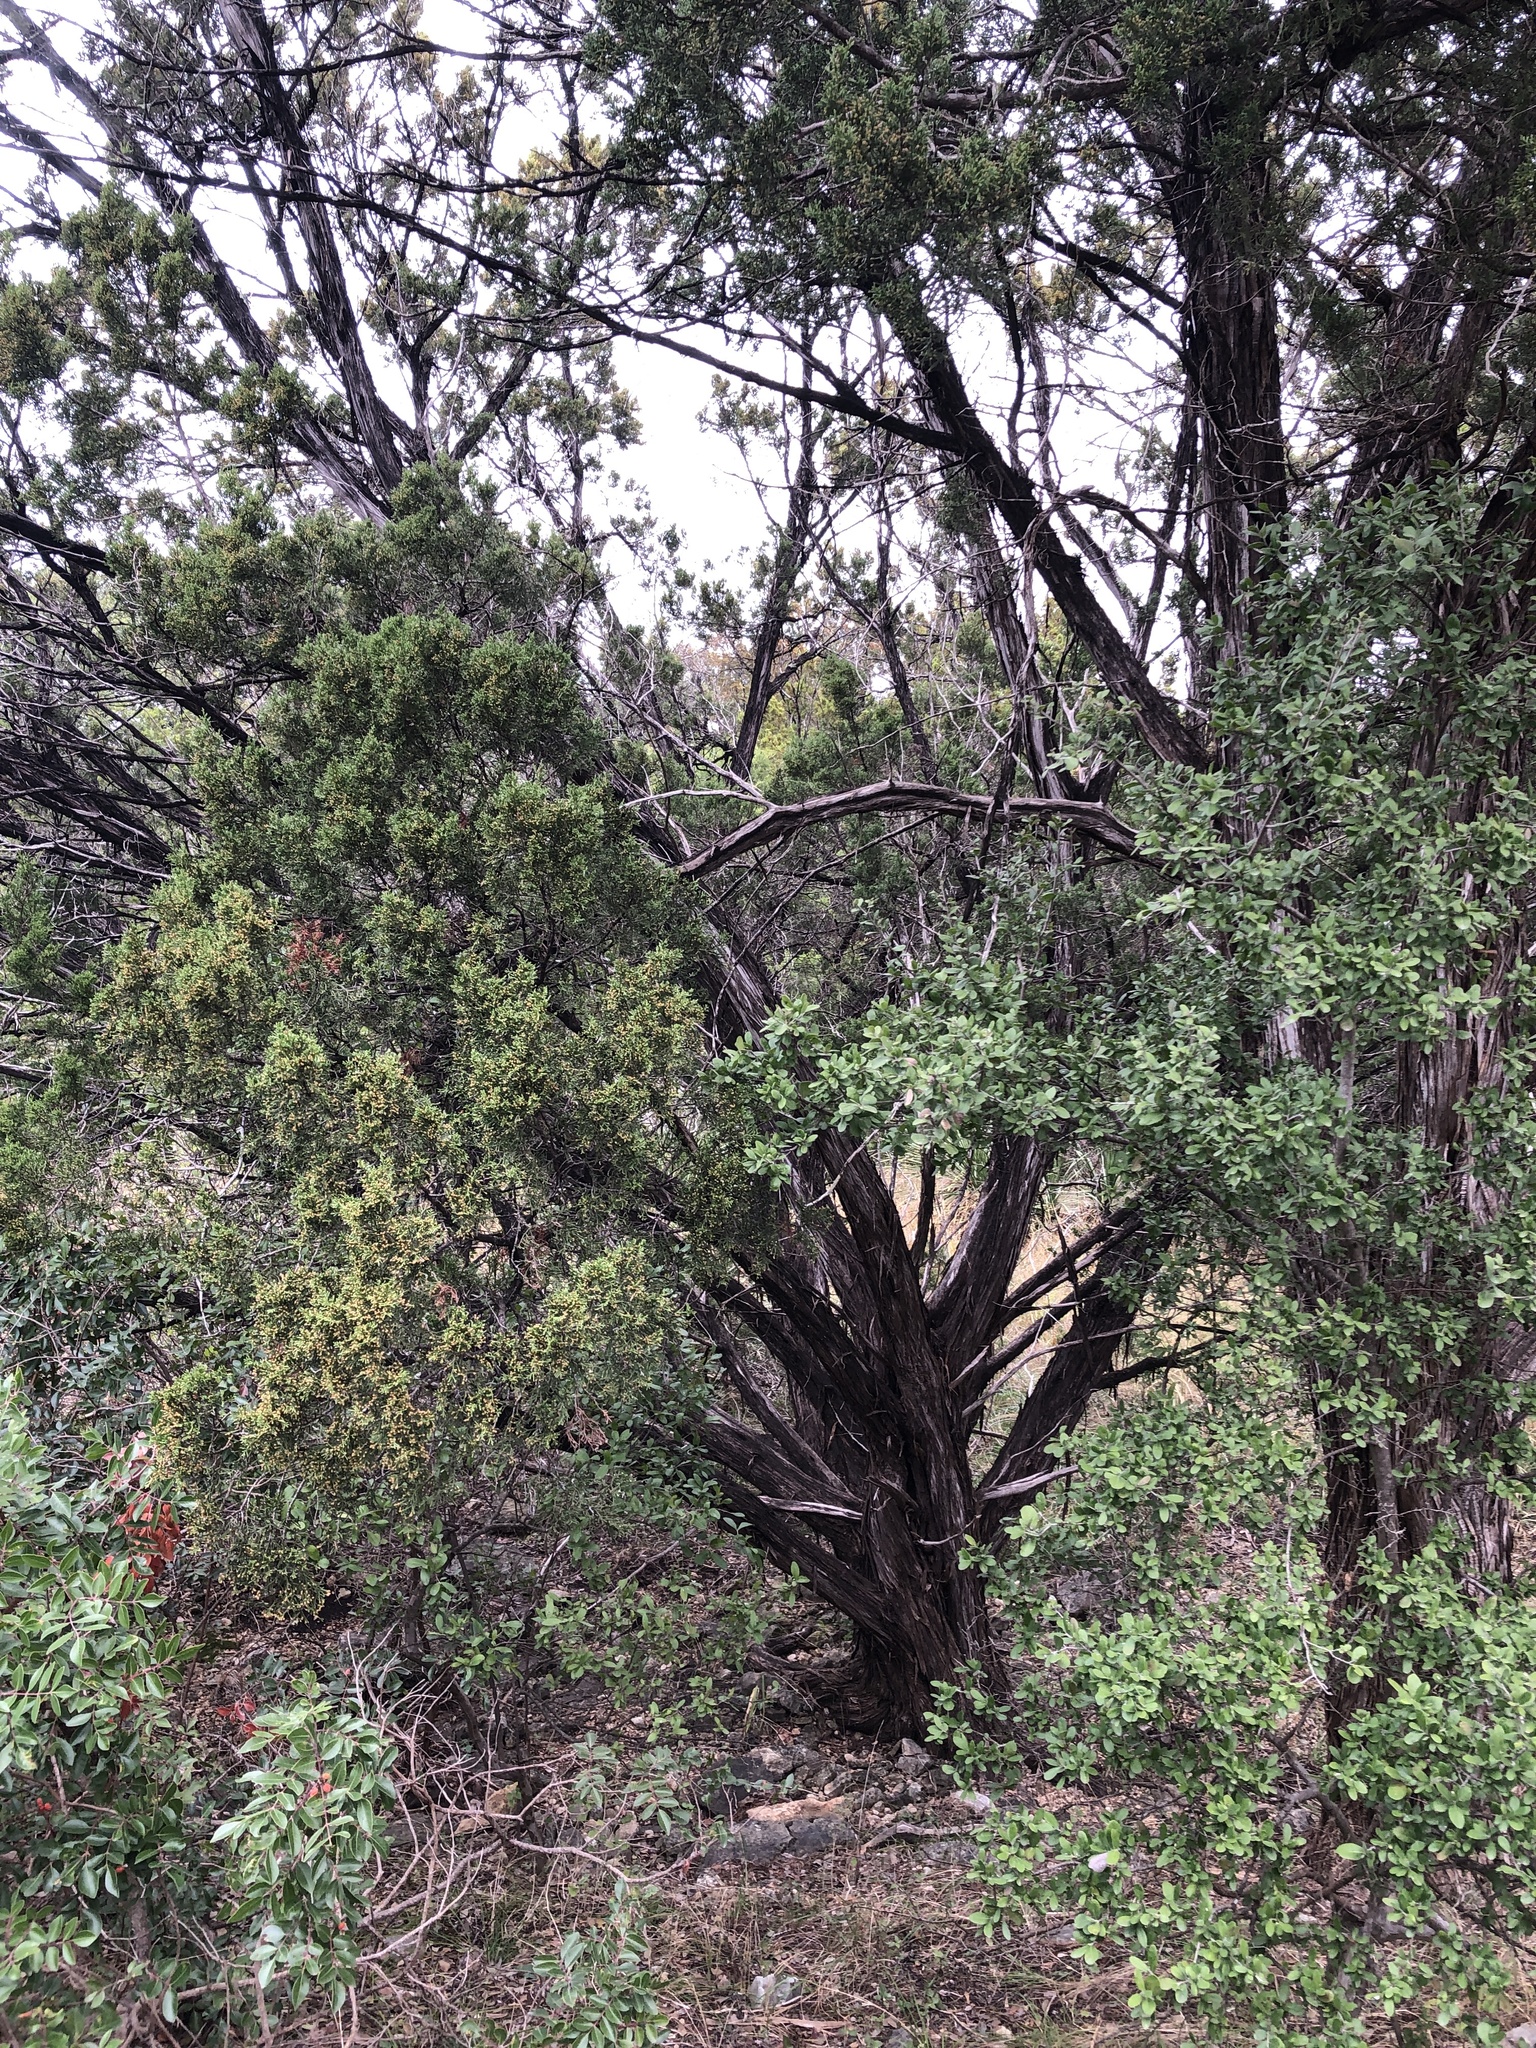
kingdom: Plantae
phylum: Tracheophyta
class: Pinopsida
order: Pinales
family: Cupressaceae
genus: Juniperus
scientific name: Juniperus ashei
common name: Mexican juniper
